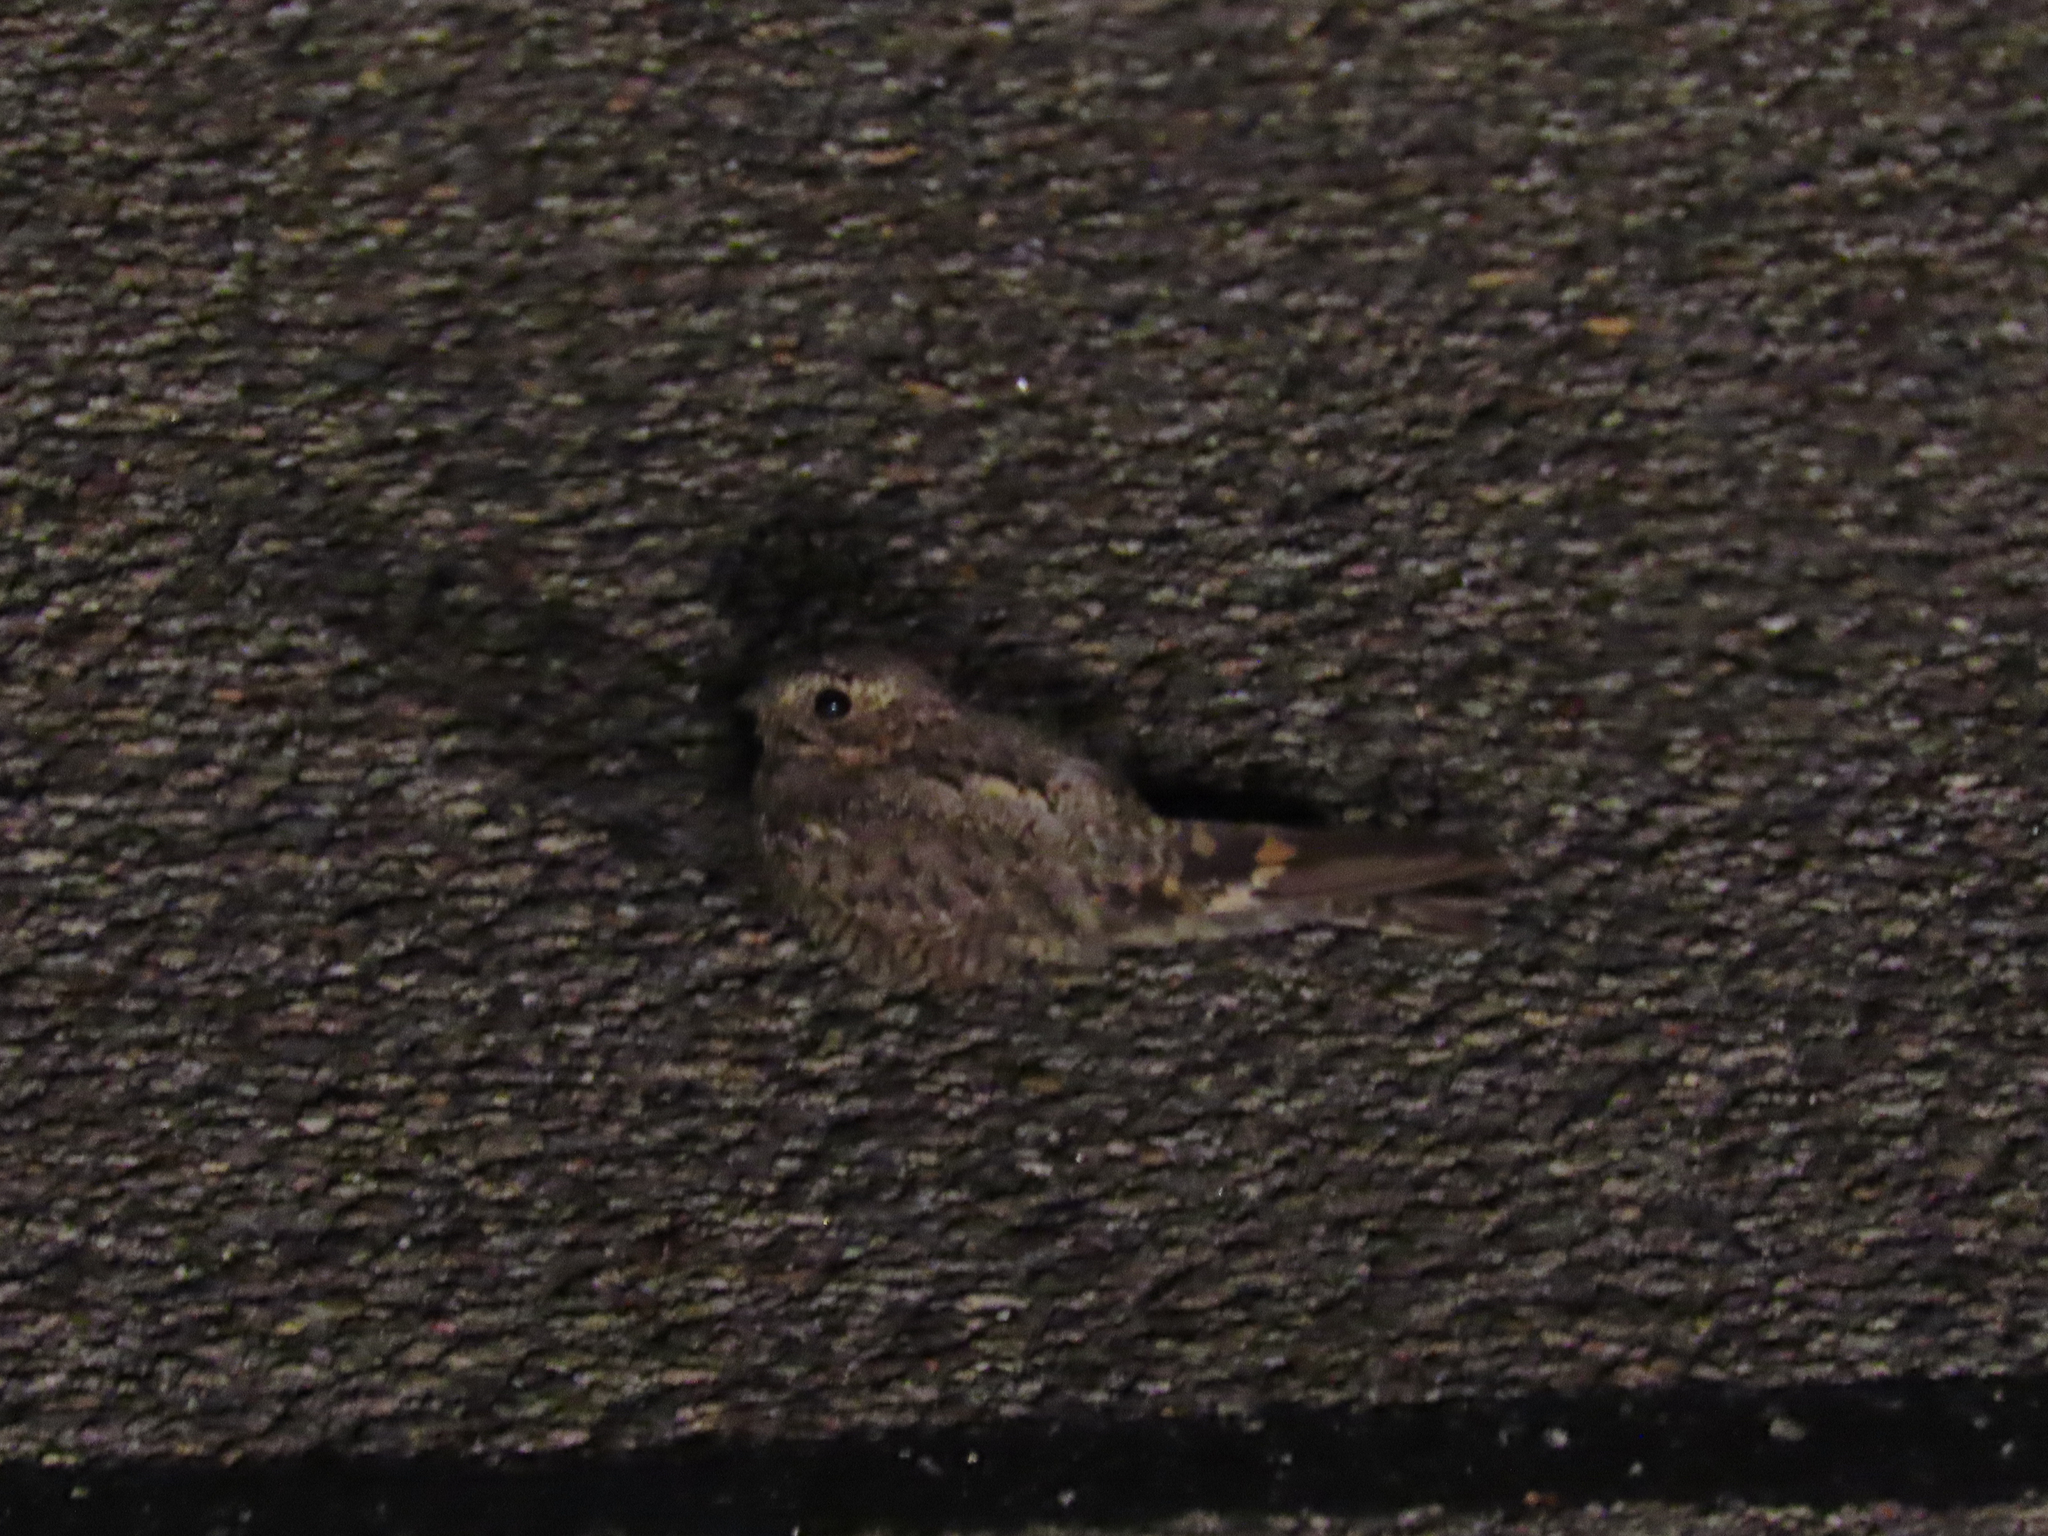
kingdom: Animalia
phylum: Chordata
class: Aves
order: Caprimulgiformes
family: Caprimulgidae
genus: Chordeiles
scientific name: Chordeiles acutipennis
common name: Lesser nighthawk
